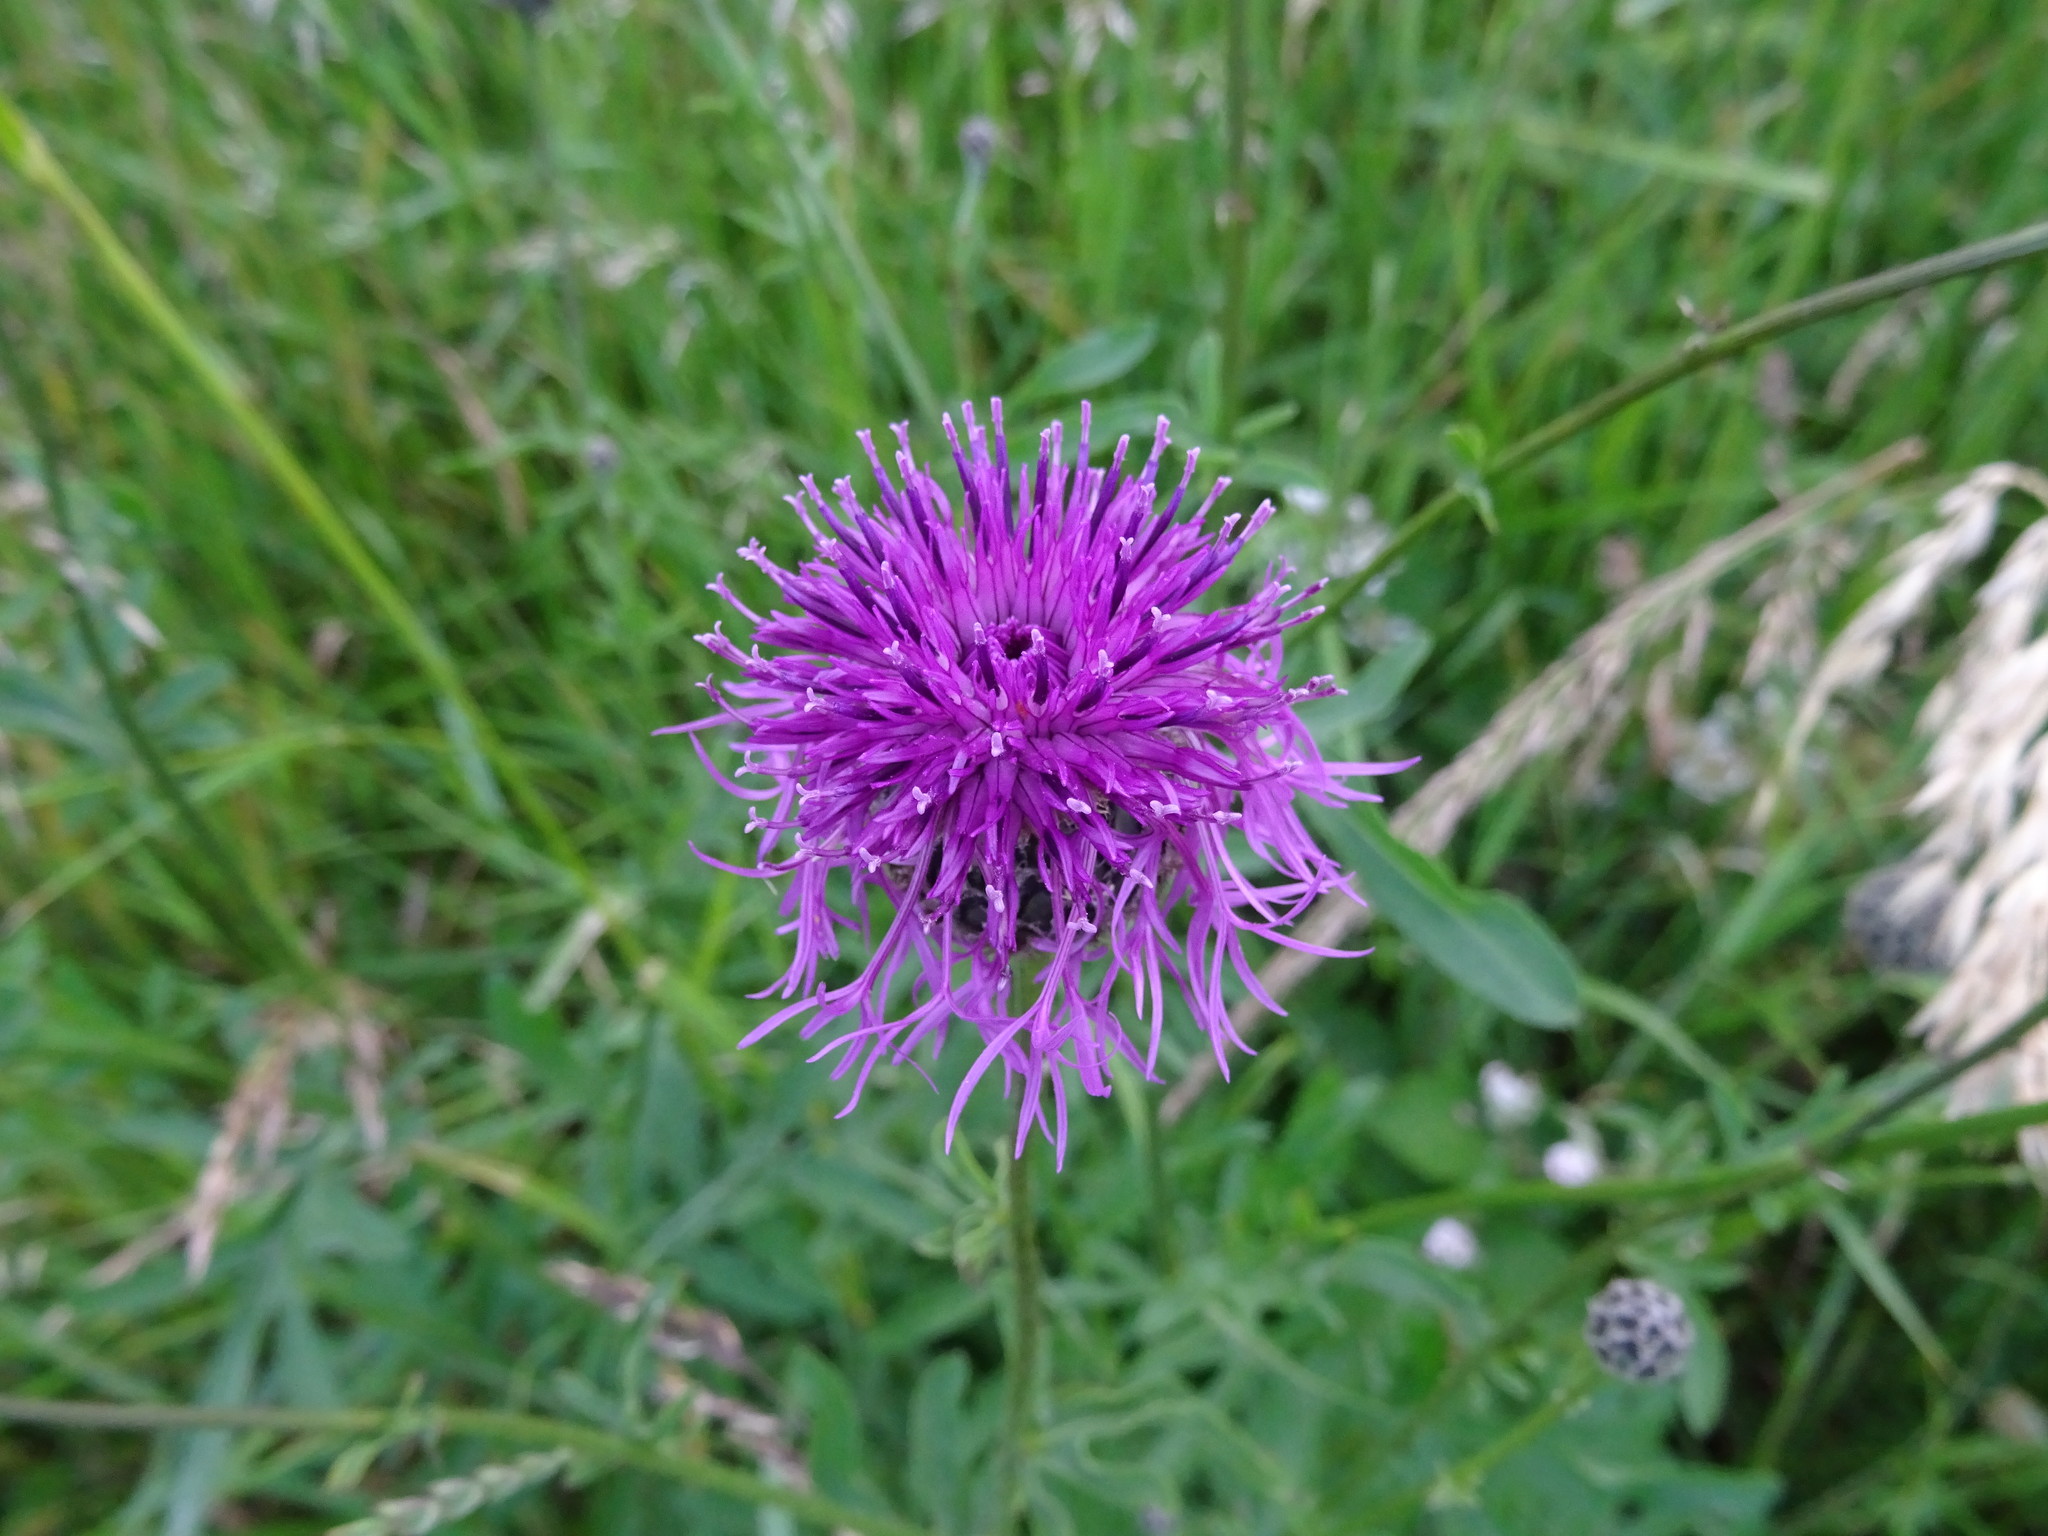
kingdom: Plantae
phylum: Tracheophyta
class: Magnoliopsida
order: Asterales
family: Asteraceae
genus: Centaurea
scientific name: Centaurea scabiosa
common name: Greater knapweed
